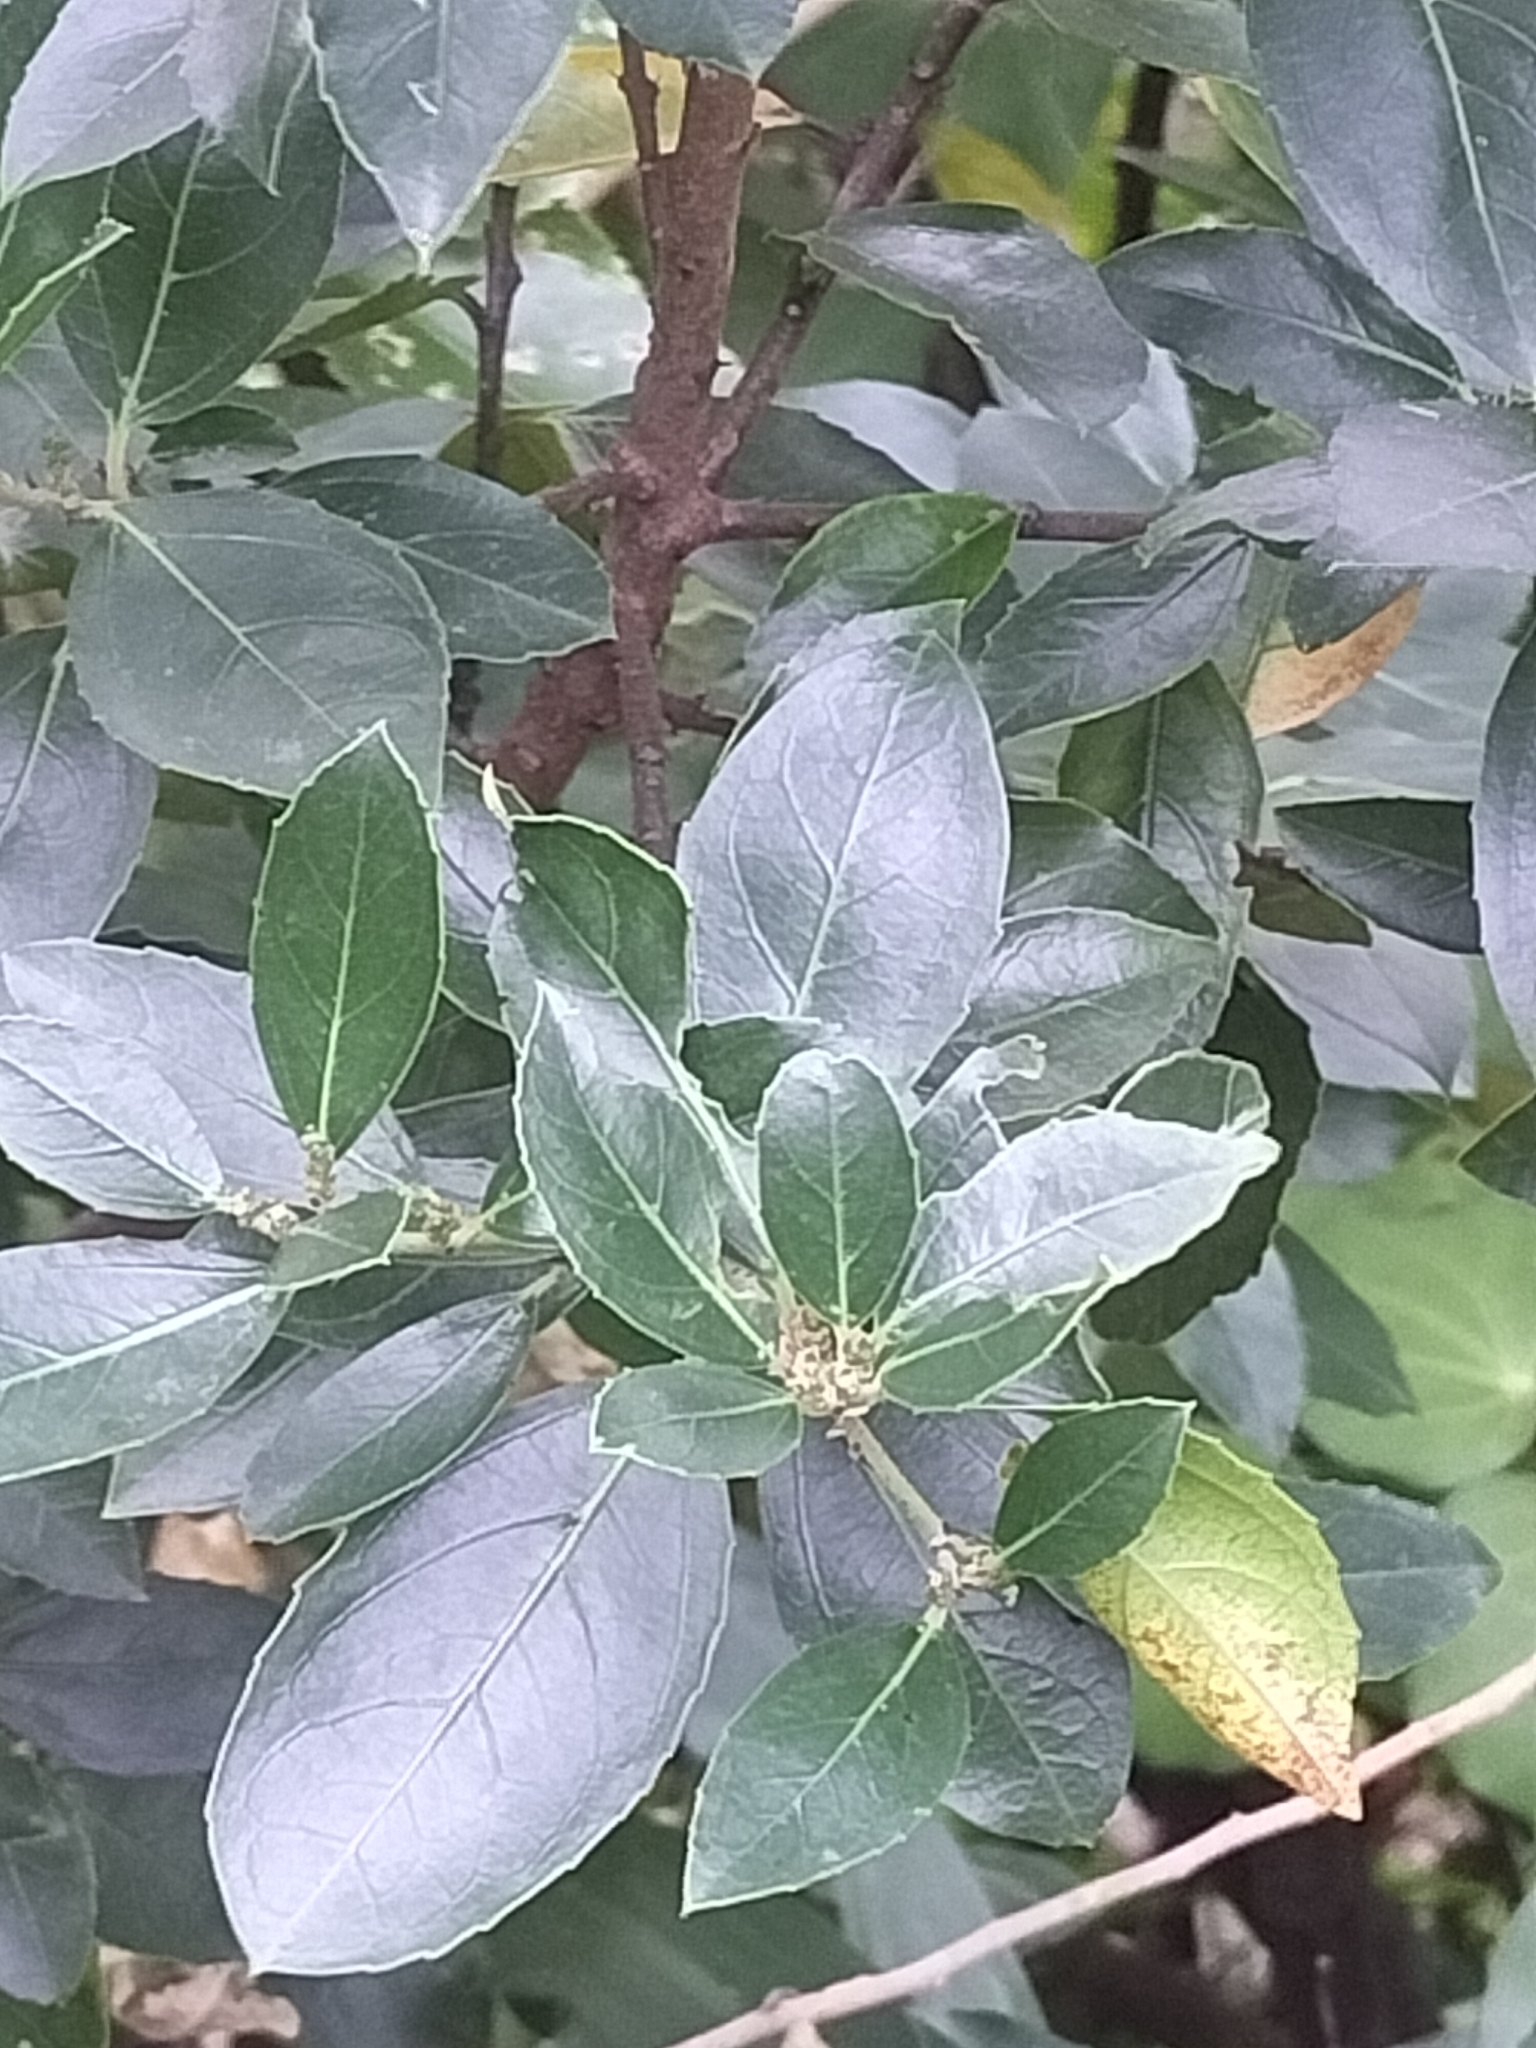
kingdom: Plantae
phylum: Tracheophyta
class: Magnoliopsida
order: Celastrales
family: Celastraceae
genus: Euonymus
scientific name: Euonymus japonicus
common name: Japanese spindletree
